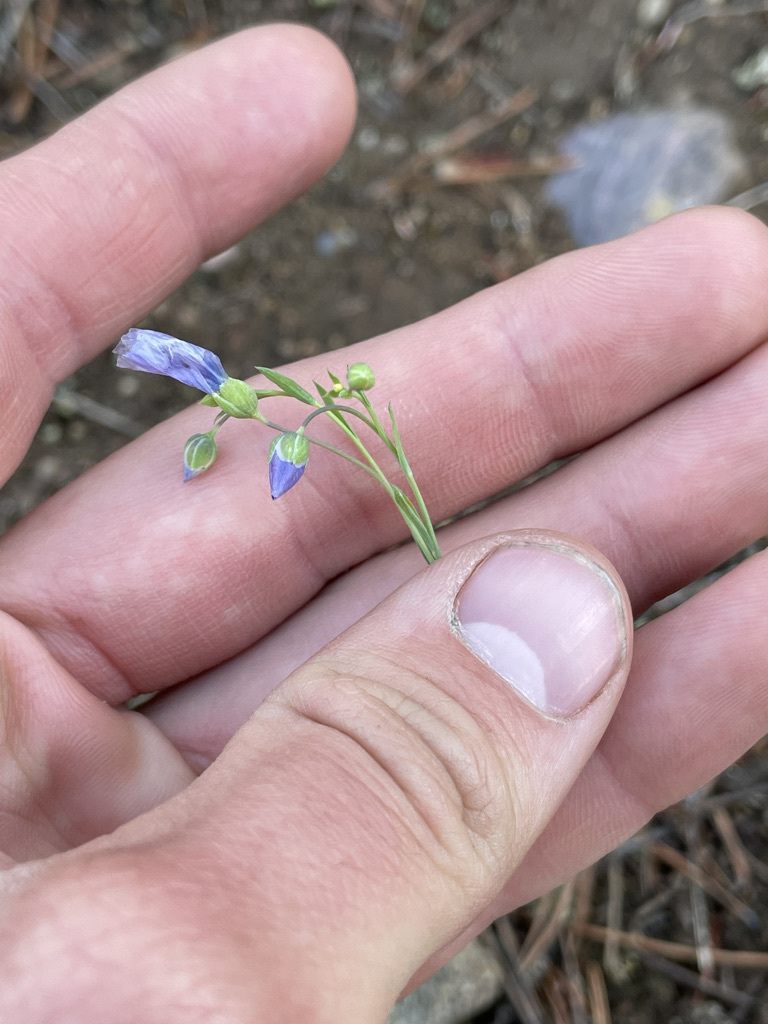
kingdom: Plantae
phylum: Tracheophyta
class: Magnoliopsida
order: Malpighiales
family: Linaceae
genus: Linum
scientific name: Linum lewisii
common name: Prairie flax
